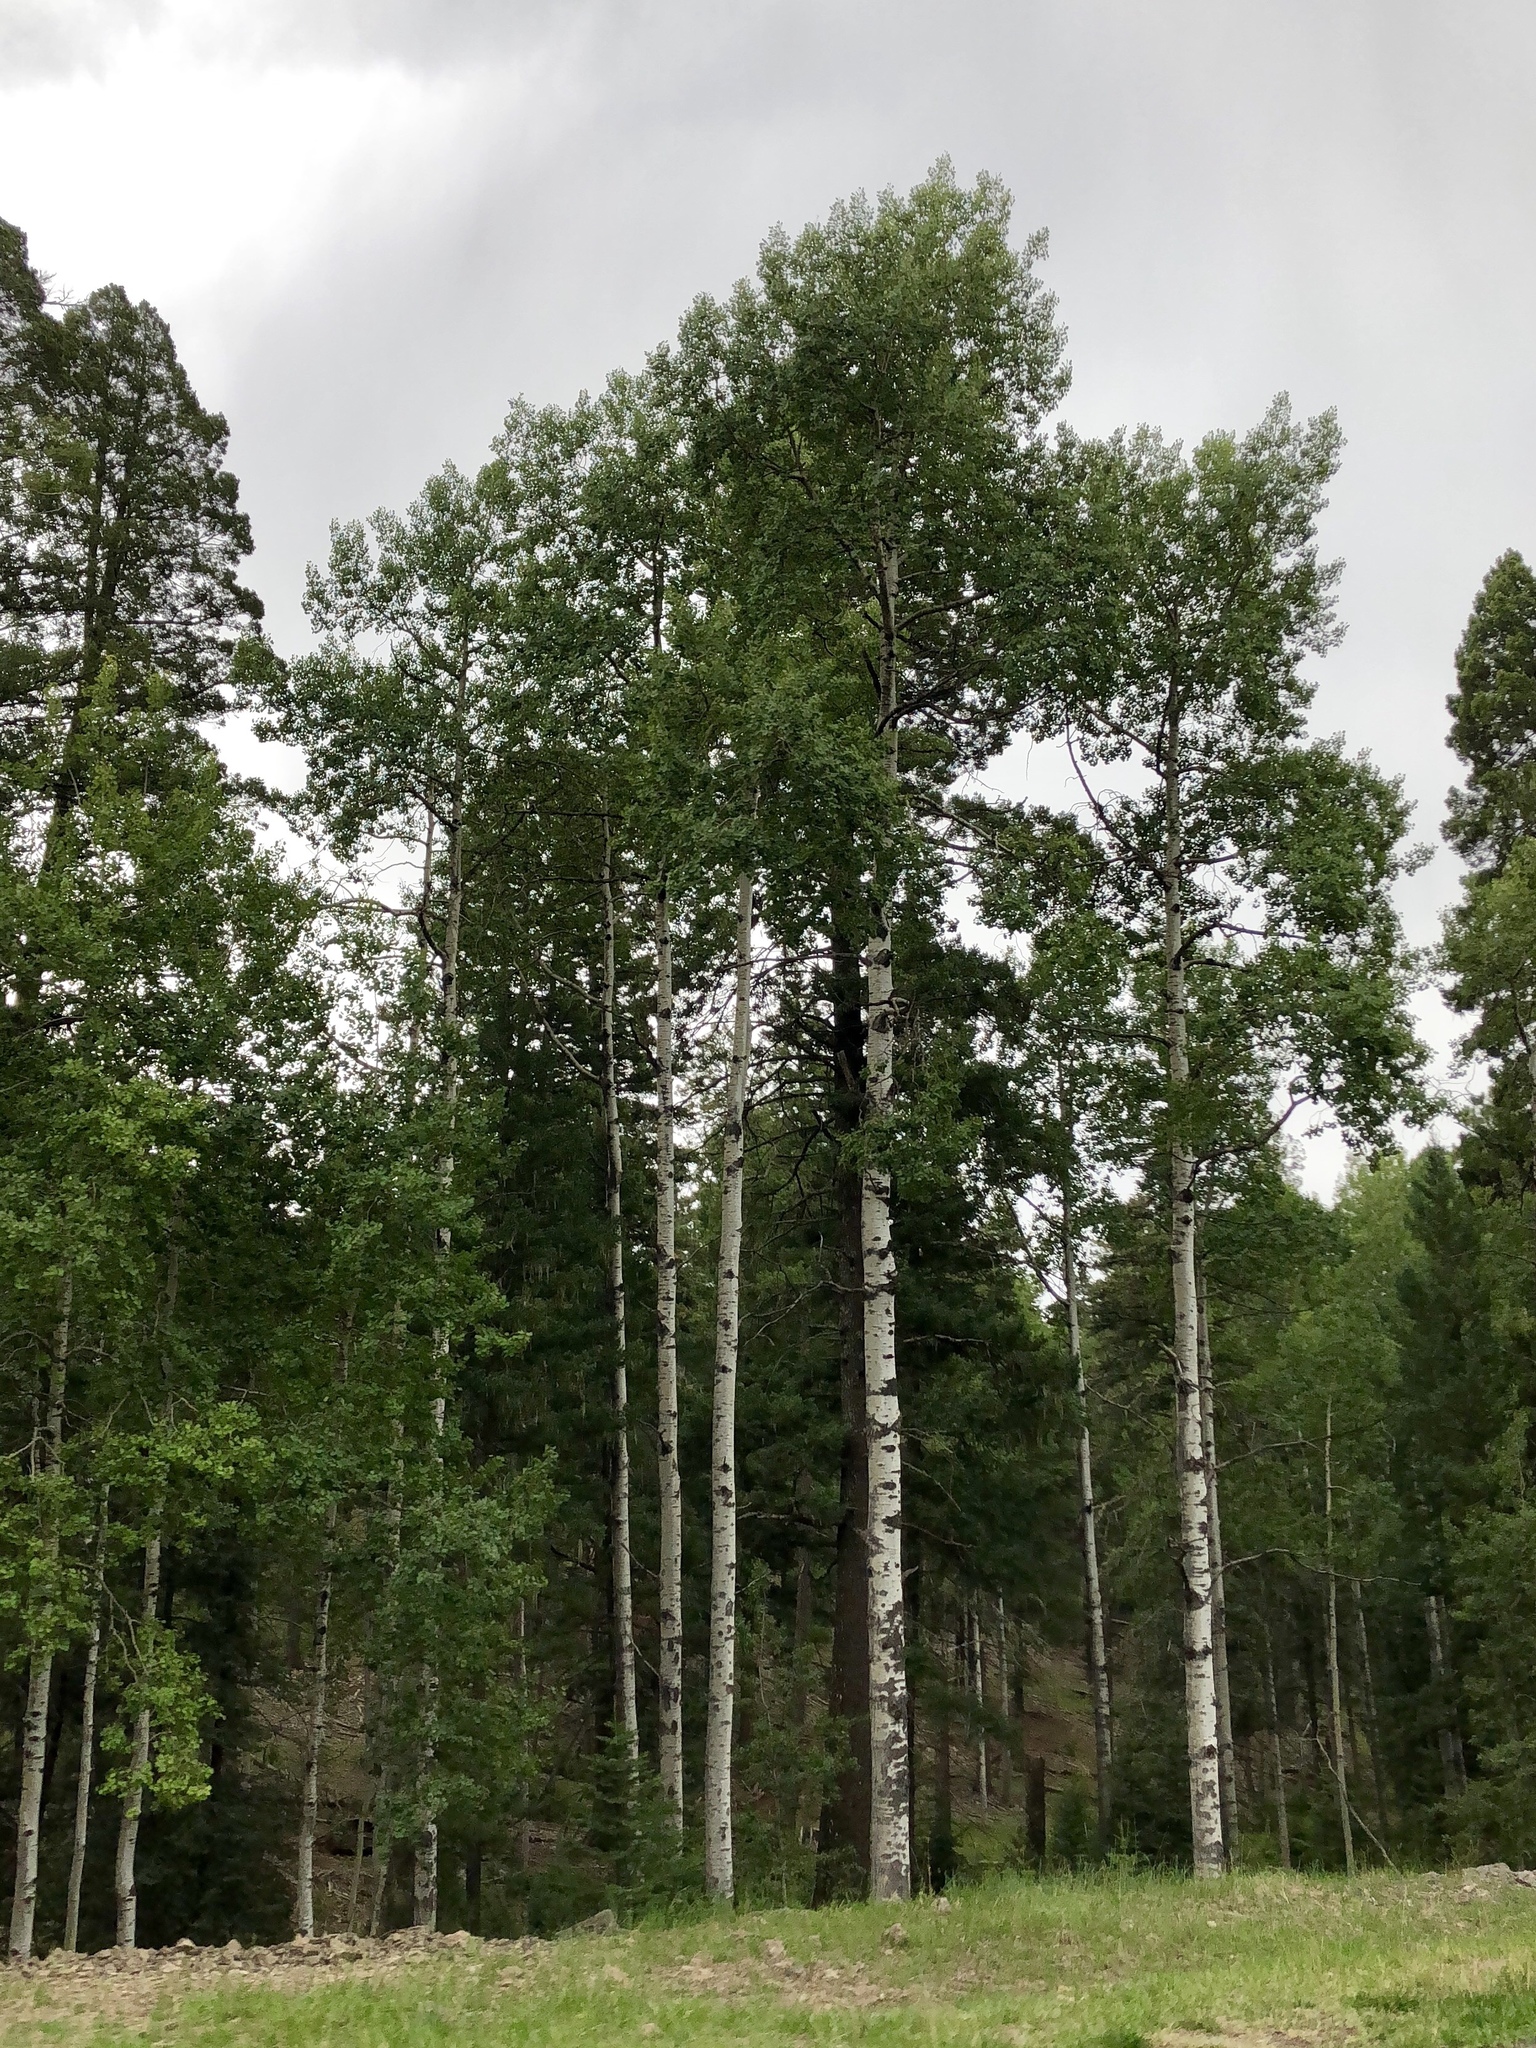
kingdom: Plantae
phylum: Tracheophyta
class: Magnoliopsida
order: Malpighiales
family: Salicaceae
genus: Populus
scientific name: Populus tremuloides
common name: Quaking aspen
